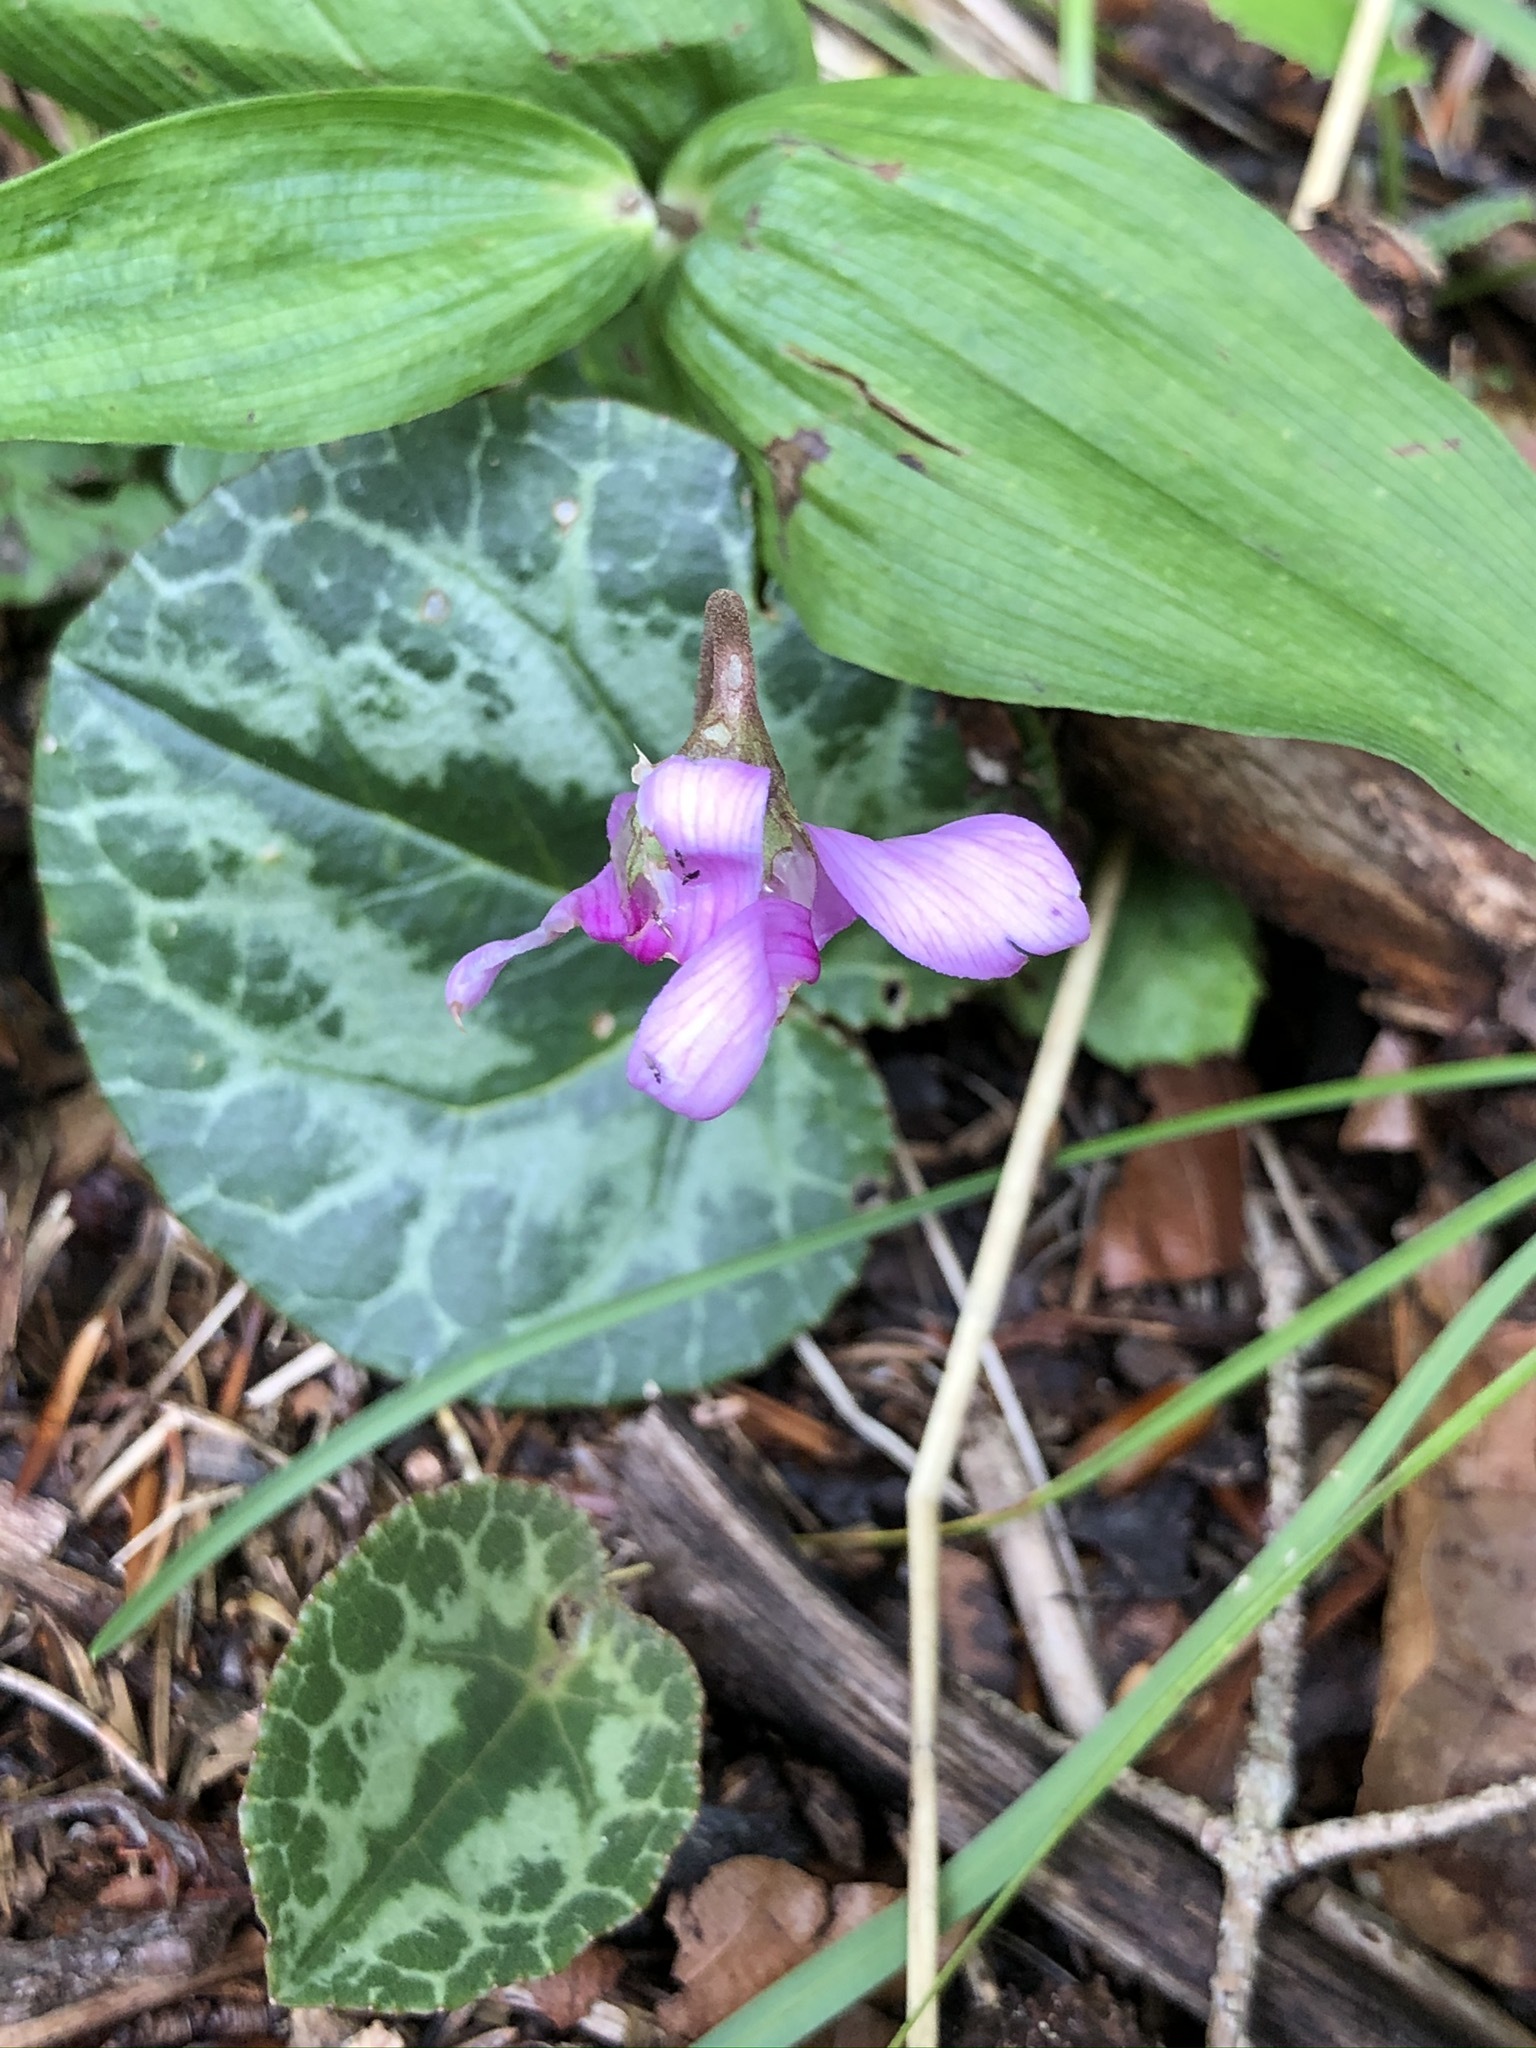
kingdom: Plantae
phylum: Tracheophyta
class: Magnoliopsida
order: Ericales
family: Primulaceae
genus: Cyclamen
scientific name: Cyclamen purpurascens
